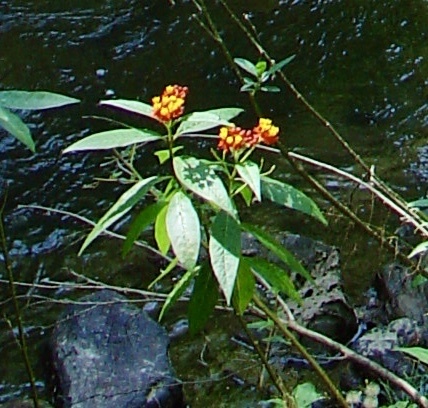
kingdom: Plantae
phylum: Tracheophyta
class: Magnoliopsida
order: Gentianales
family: Apocynaceae
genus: Asclepias
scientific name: Asclepias curassavica
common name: Bloodflower
